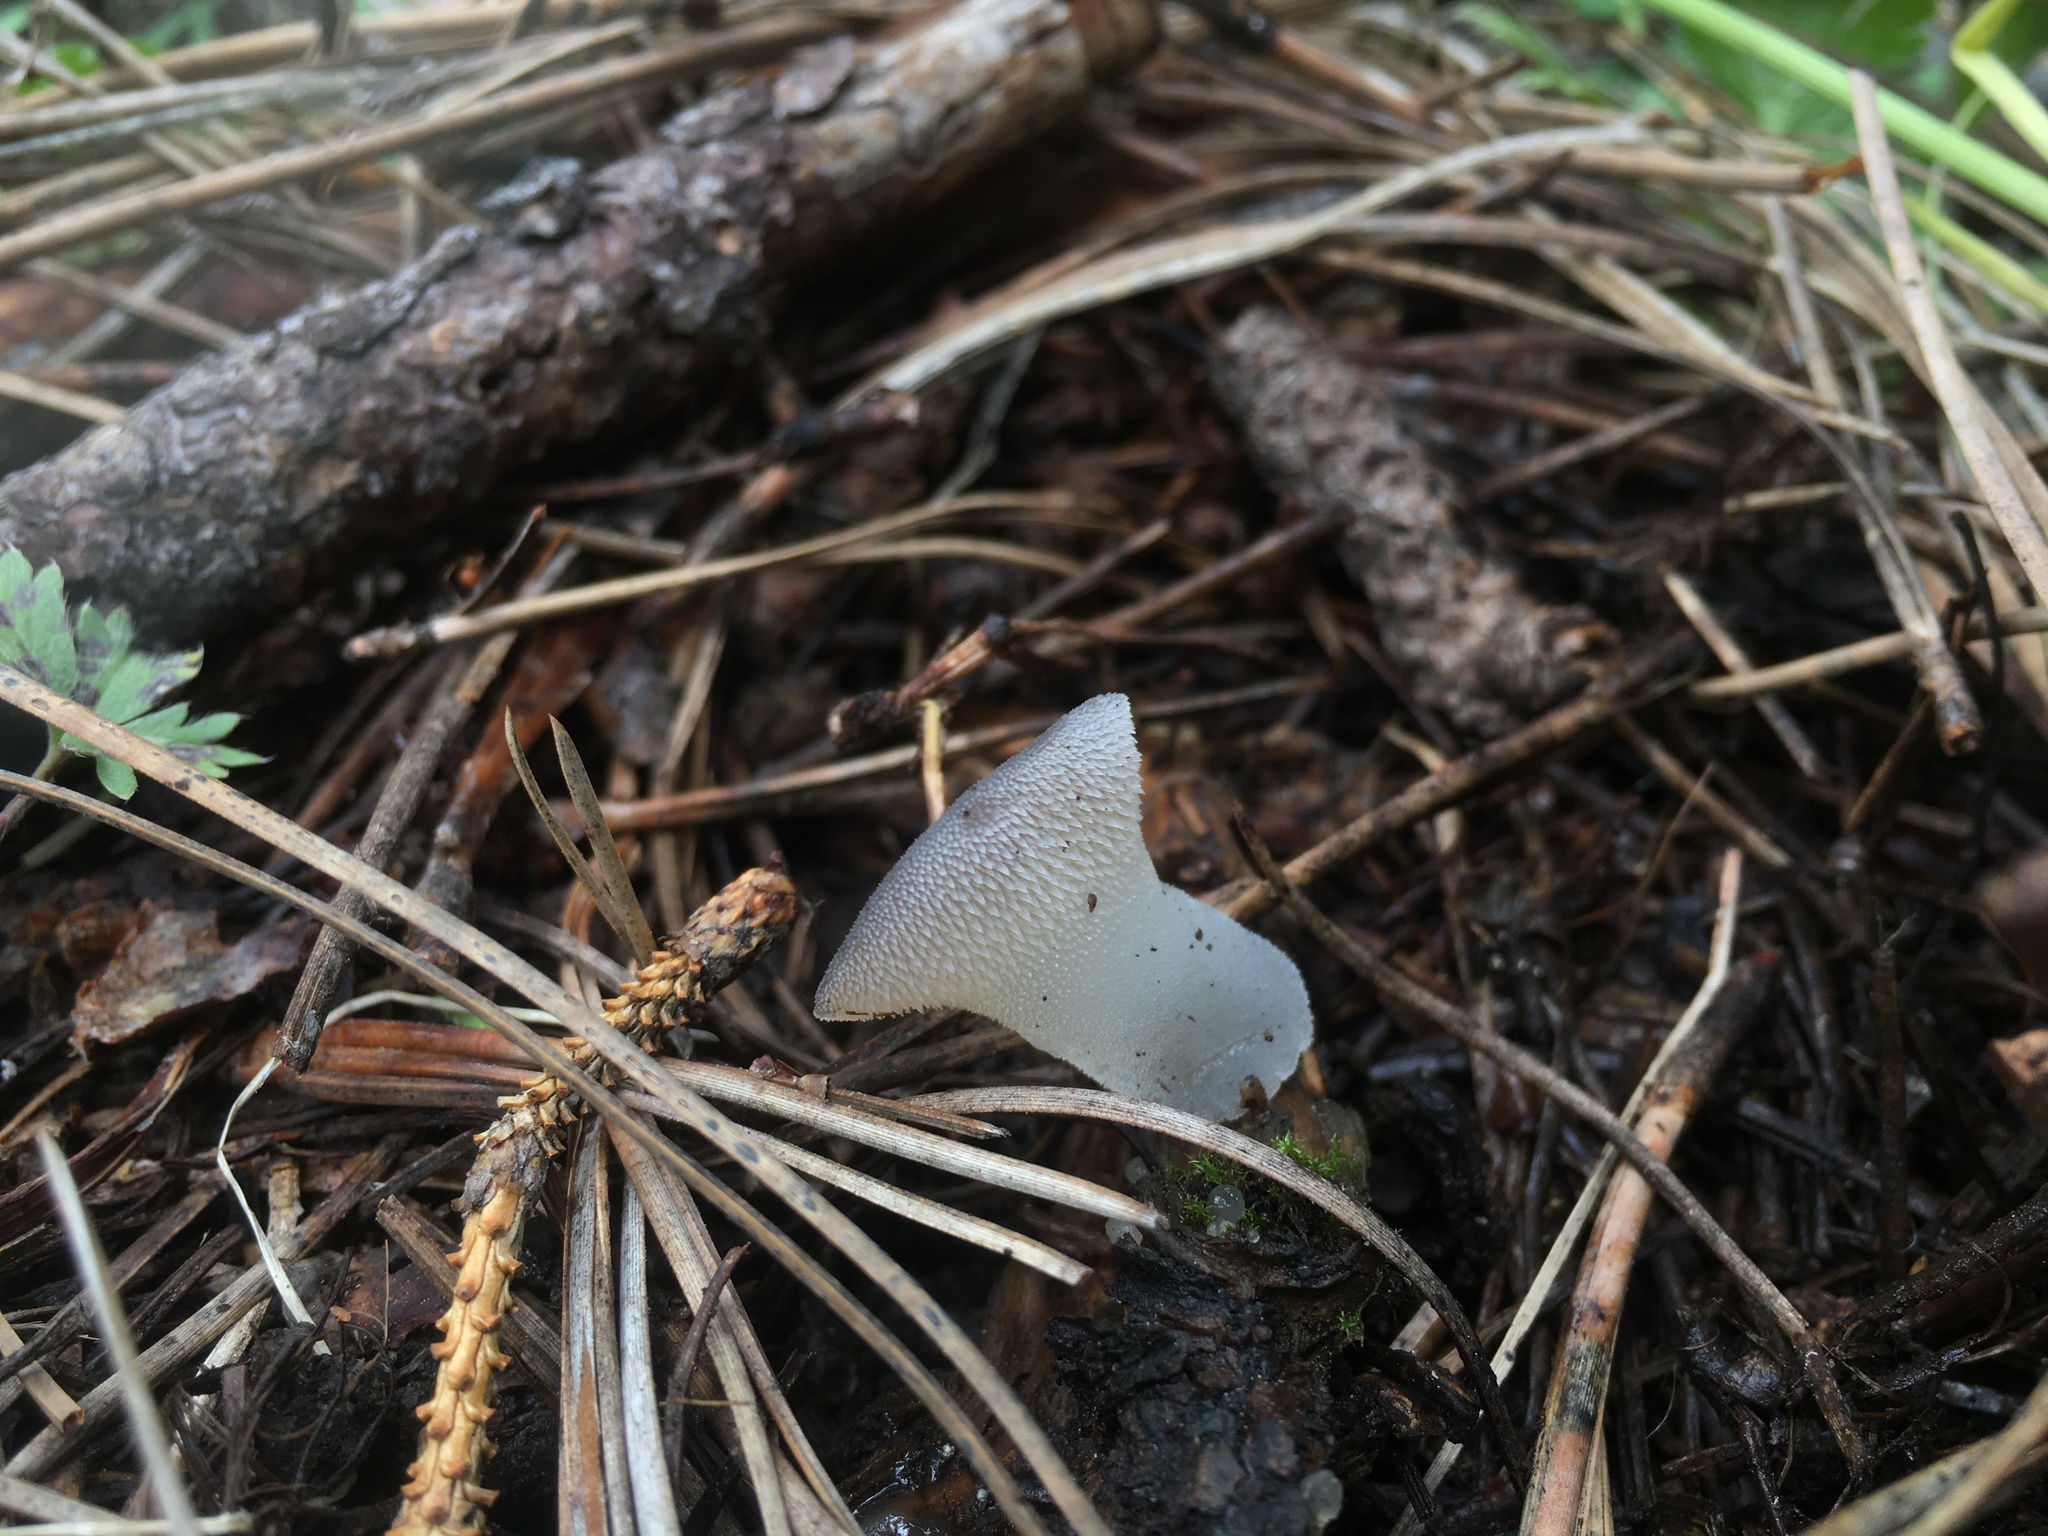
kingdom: Fungi
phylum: Basidiomycota
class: Agaricomycetes
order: Auriculariales
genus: Pseudohydnum
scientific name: Pseudohydnum gelatinosum
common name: Jelly tongue
